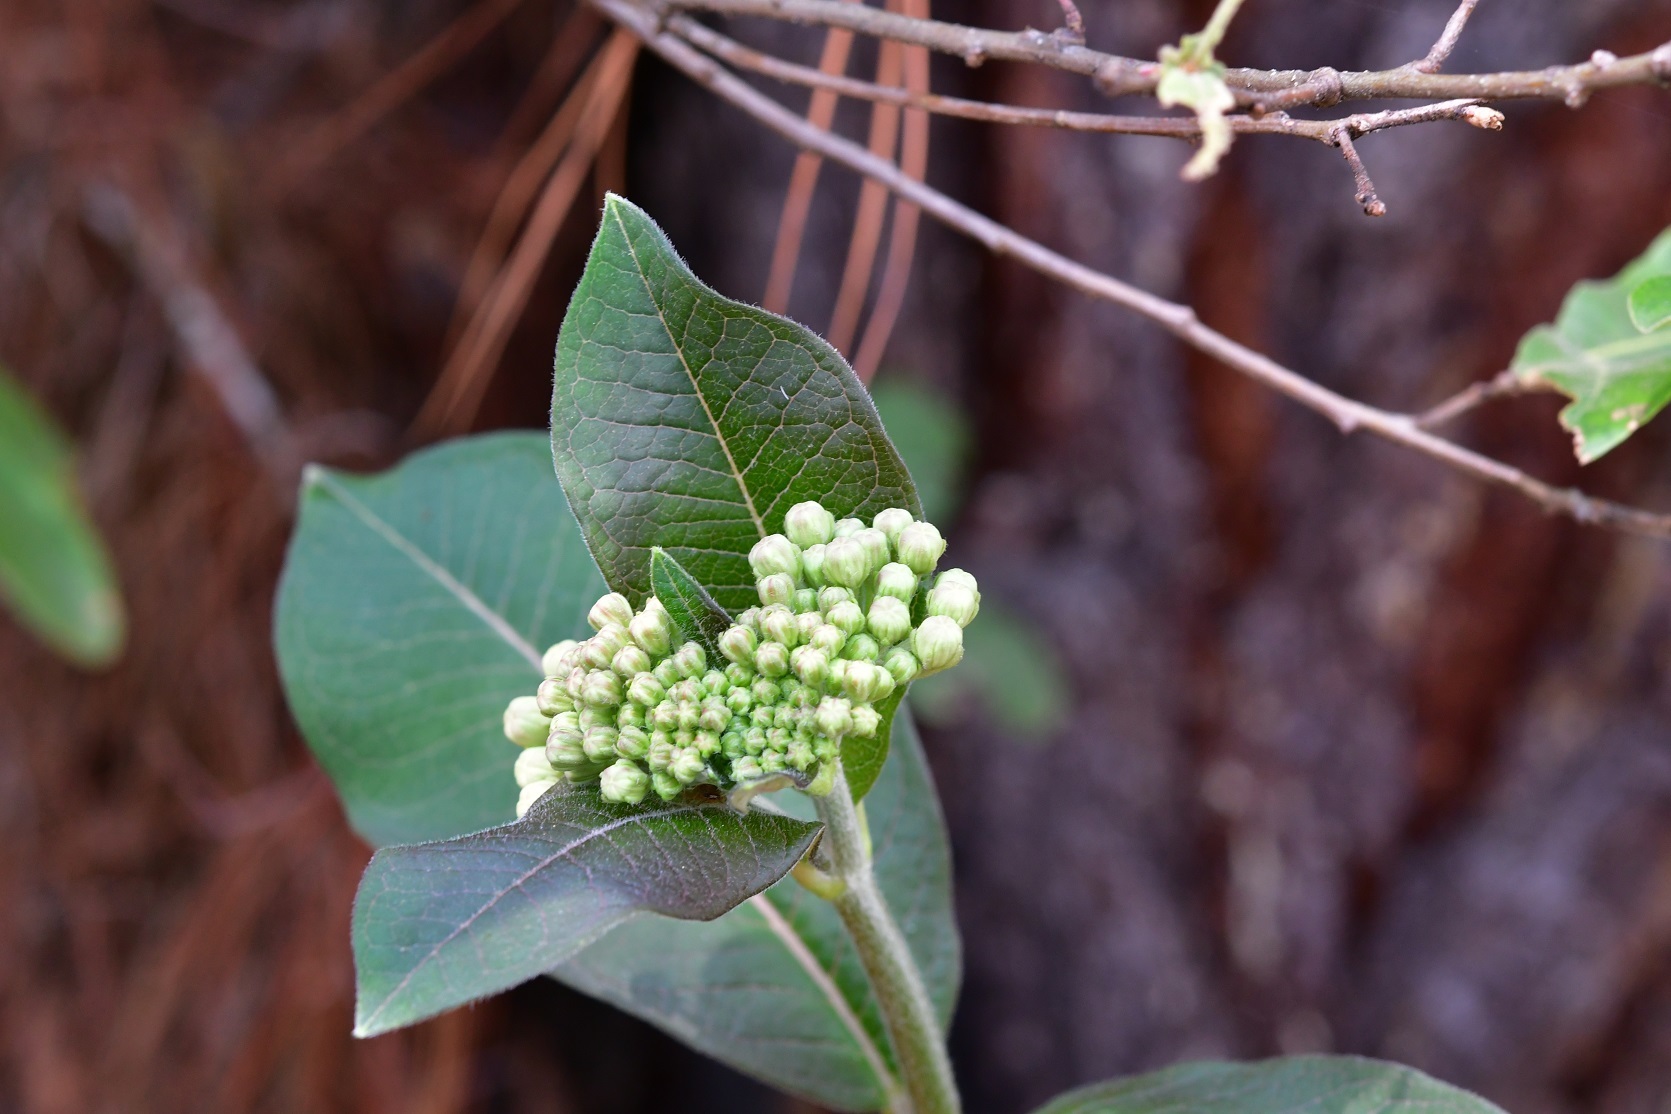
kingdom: Plantae
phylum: Tracheophyta
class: Magnoliopsida
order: Gentianales
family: Apocynaceae
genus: Asclepias
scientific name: Asclepias similis
